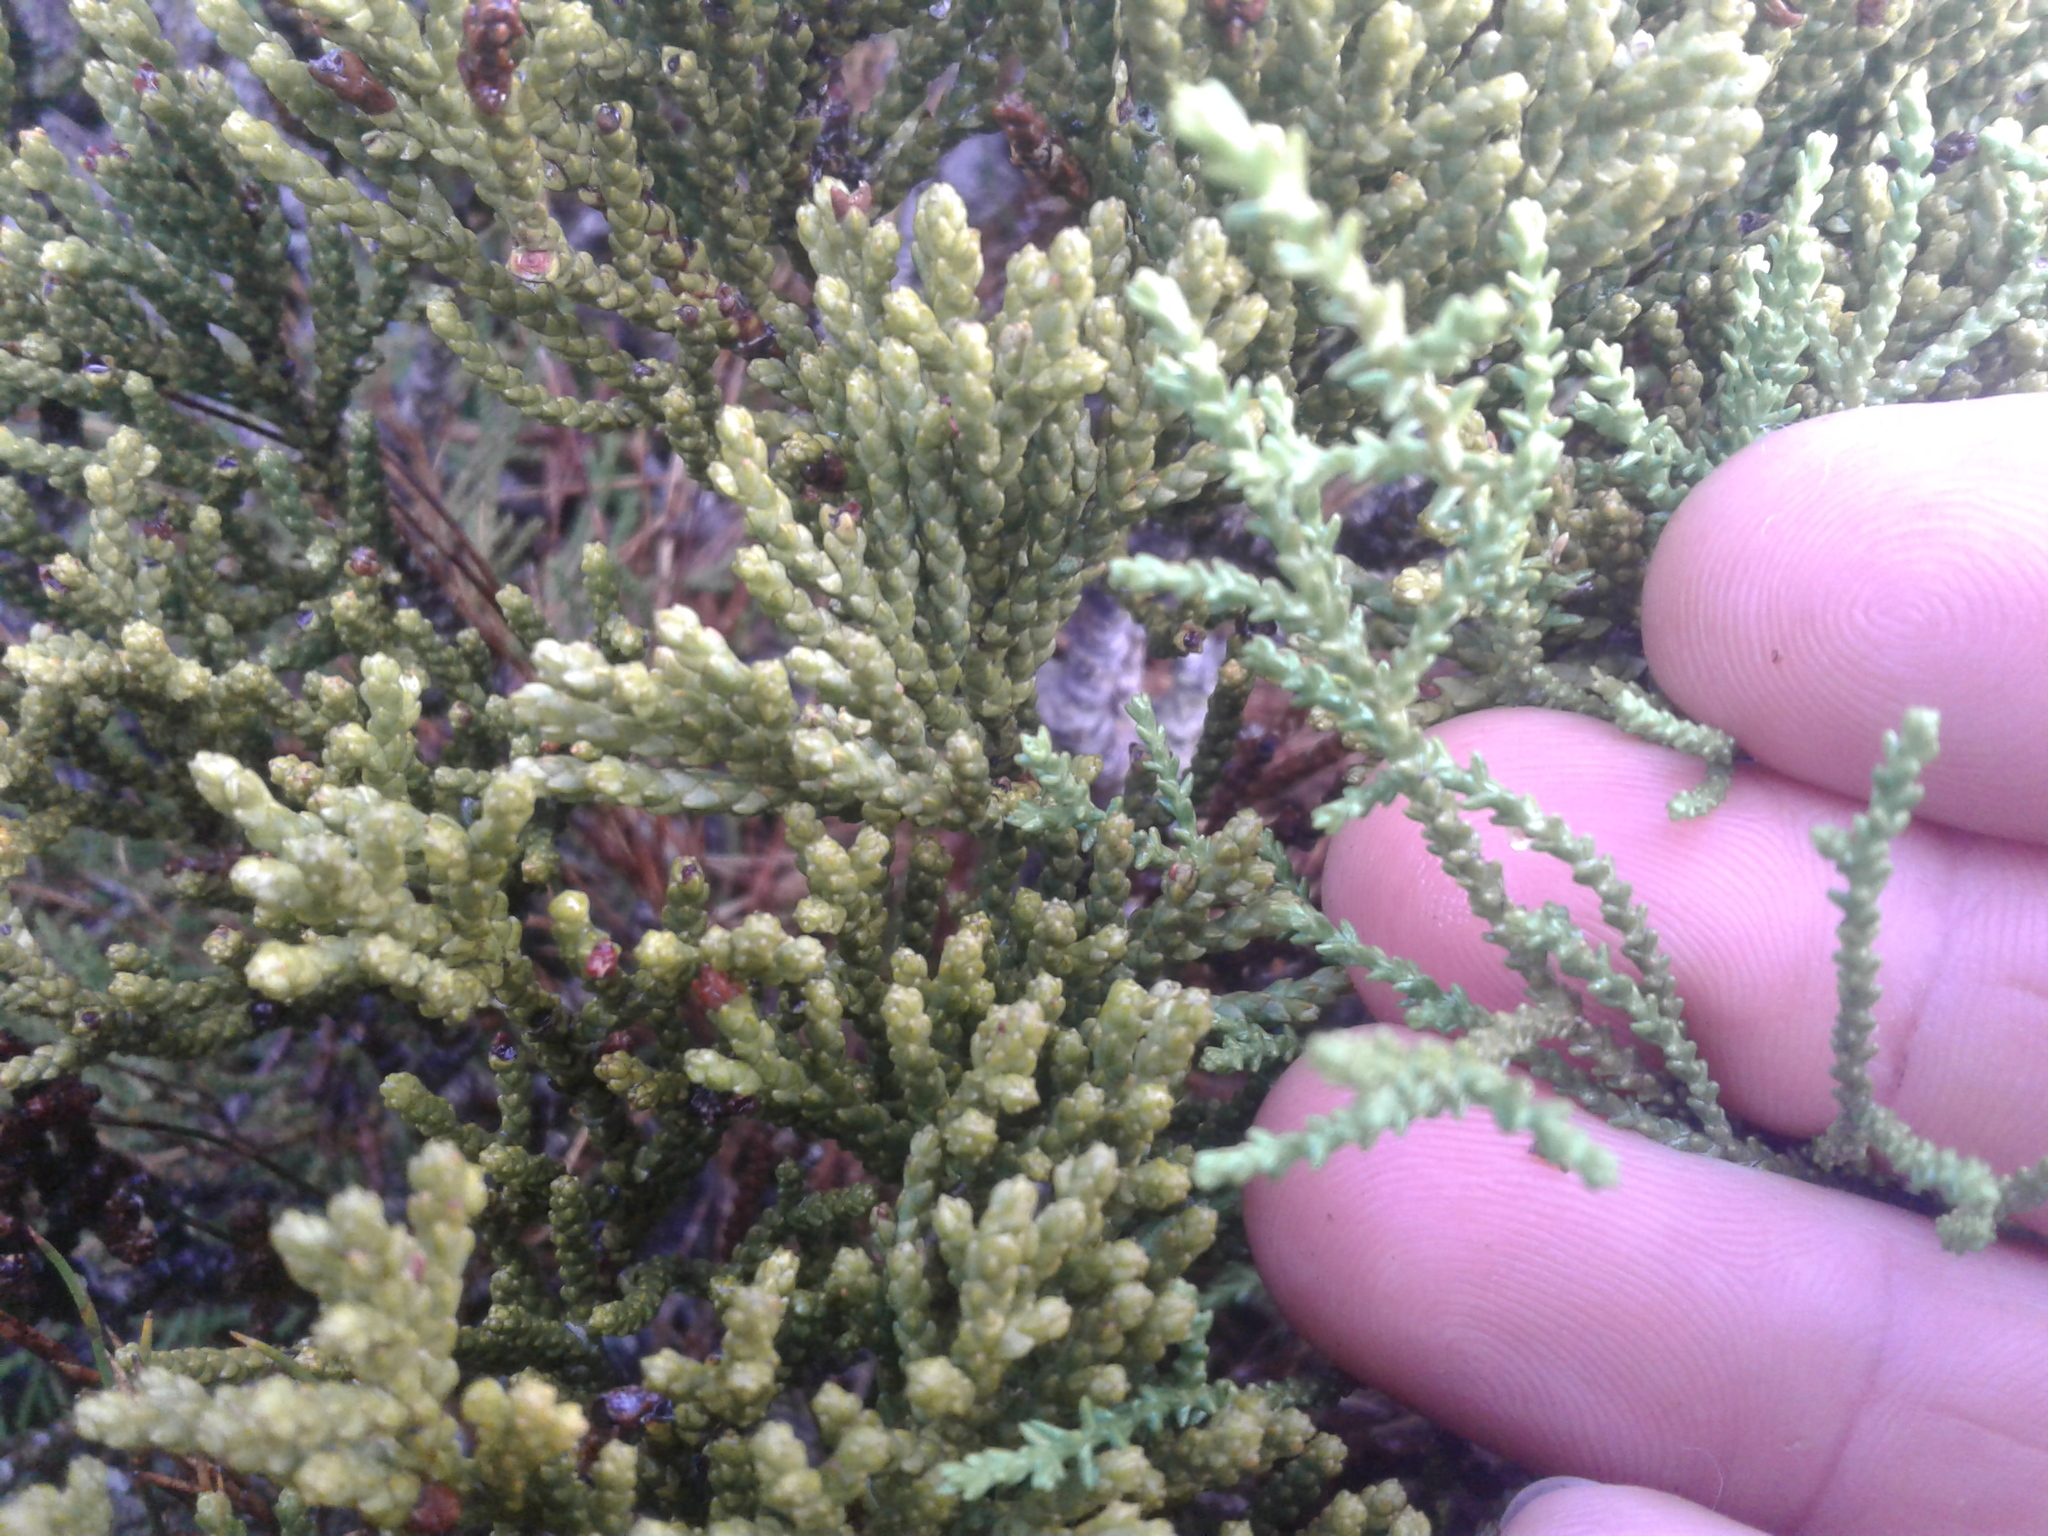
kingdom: Plantae
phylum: Tracheophyta
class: Pinopsida
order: Pinales
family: Podocarpaceae
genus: Lepidothamnus
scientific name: Lepidothamnus laxifolius
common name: Pygmy pine
